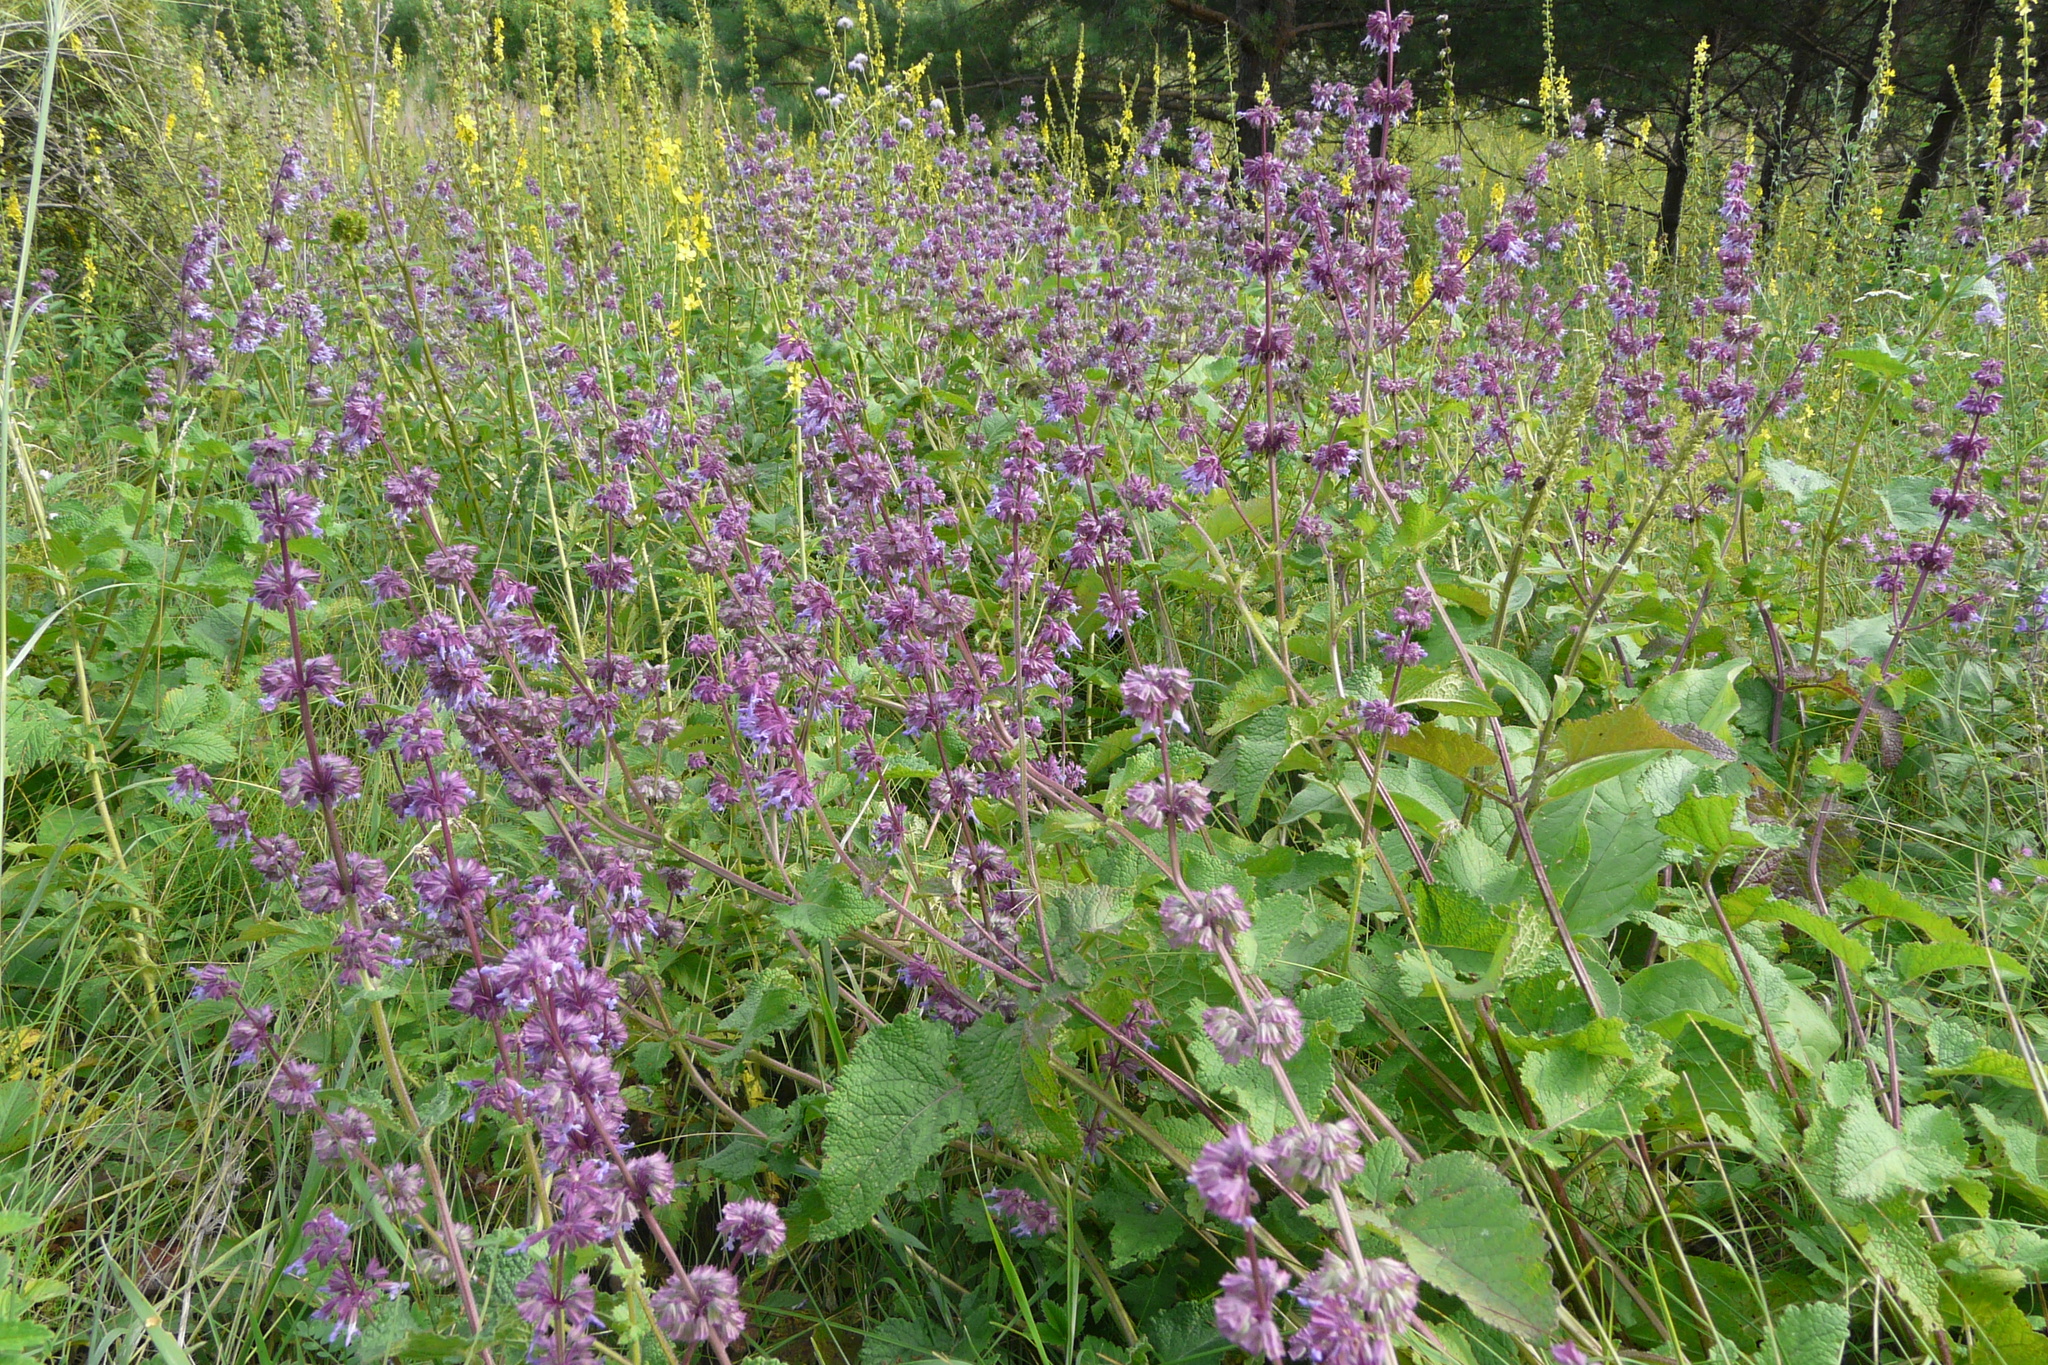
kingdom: Plantae
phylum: Tracheophyta
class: Magnoliopsida
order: Lamiales
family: Lamiaceae
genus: Salvia
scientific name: Salvia verticillata
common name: Whorled clary
